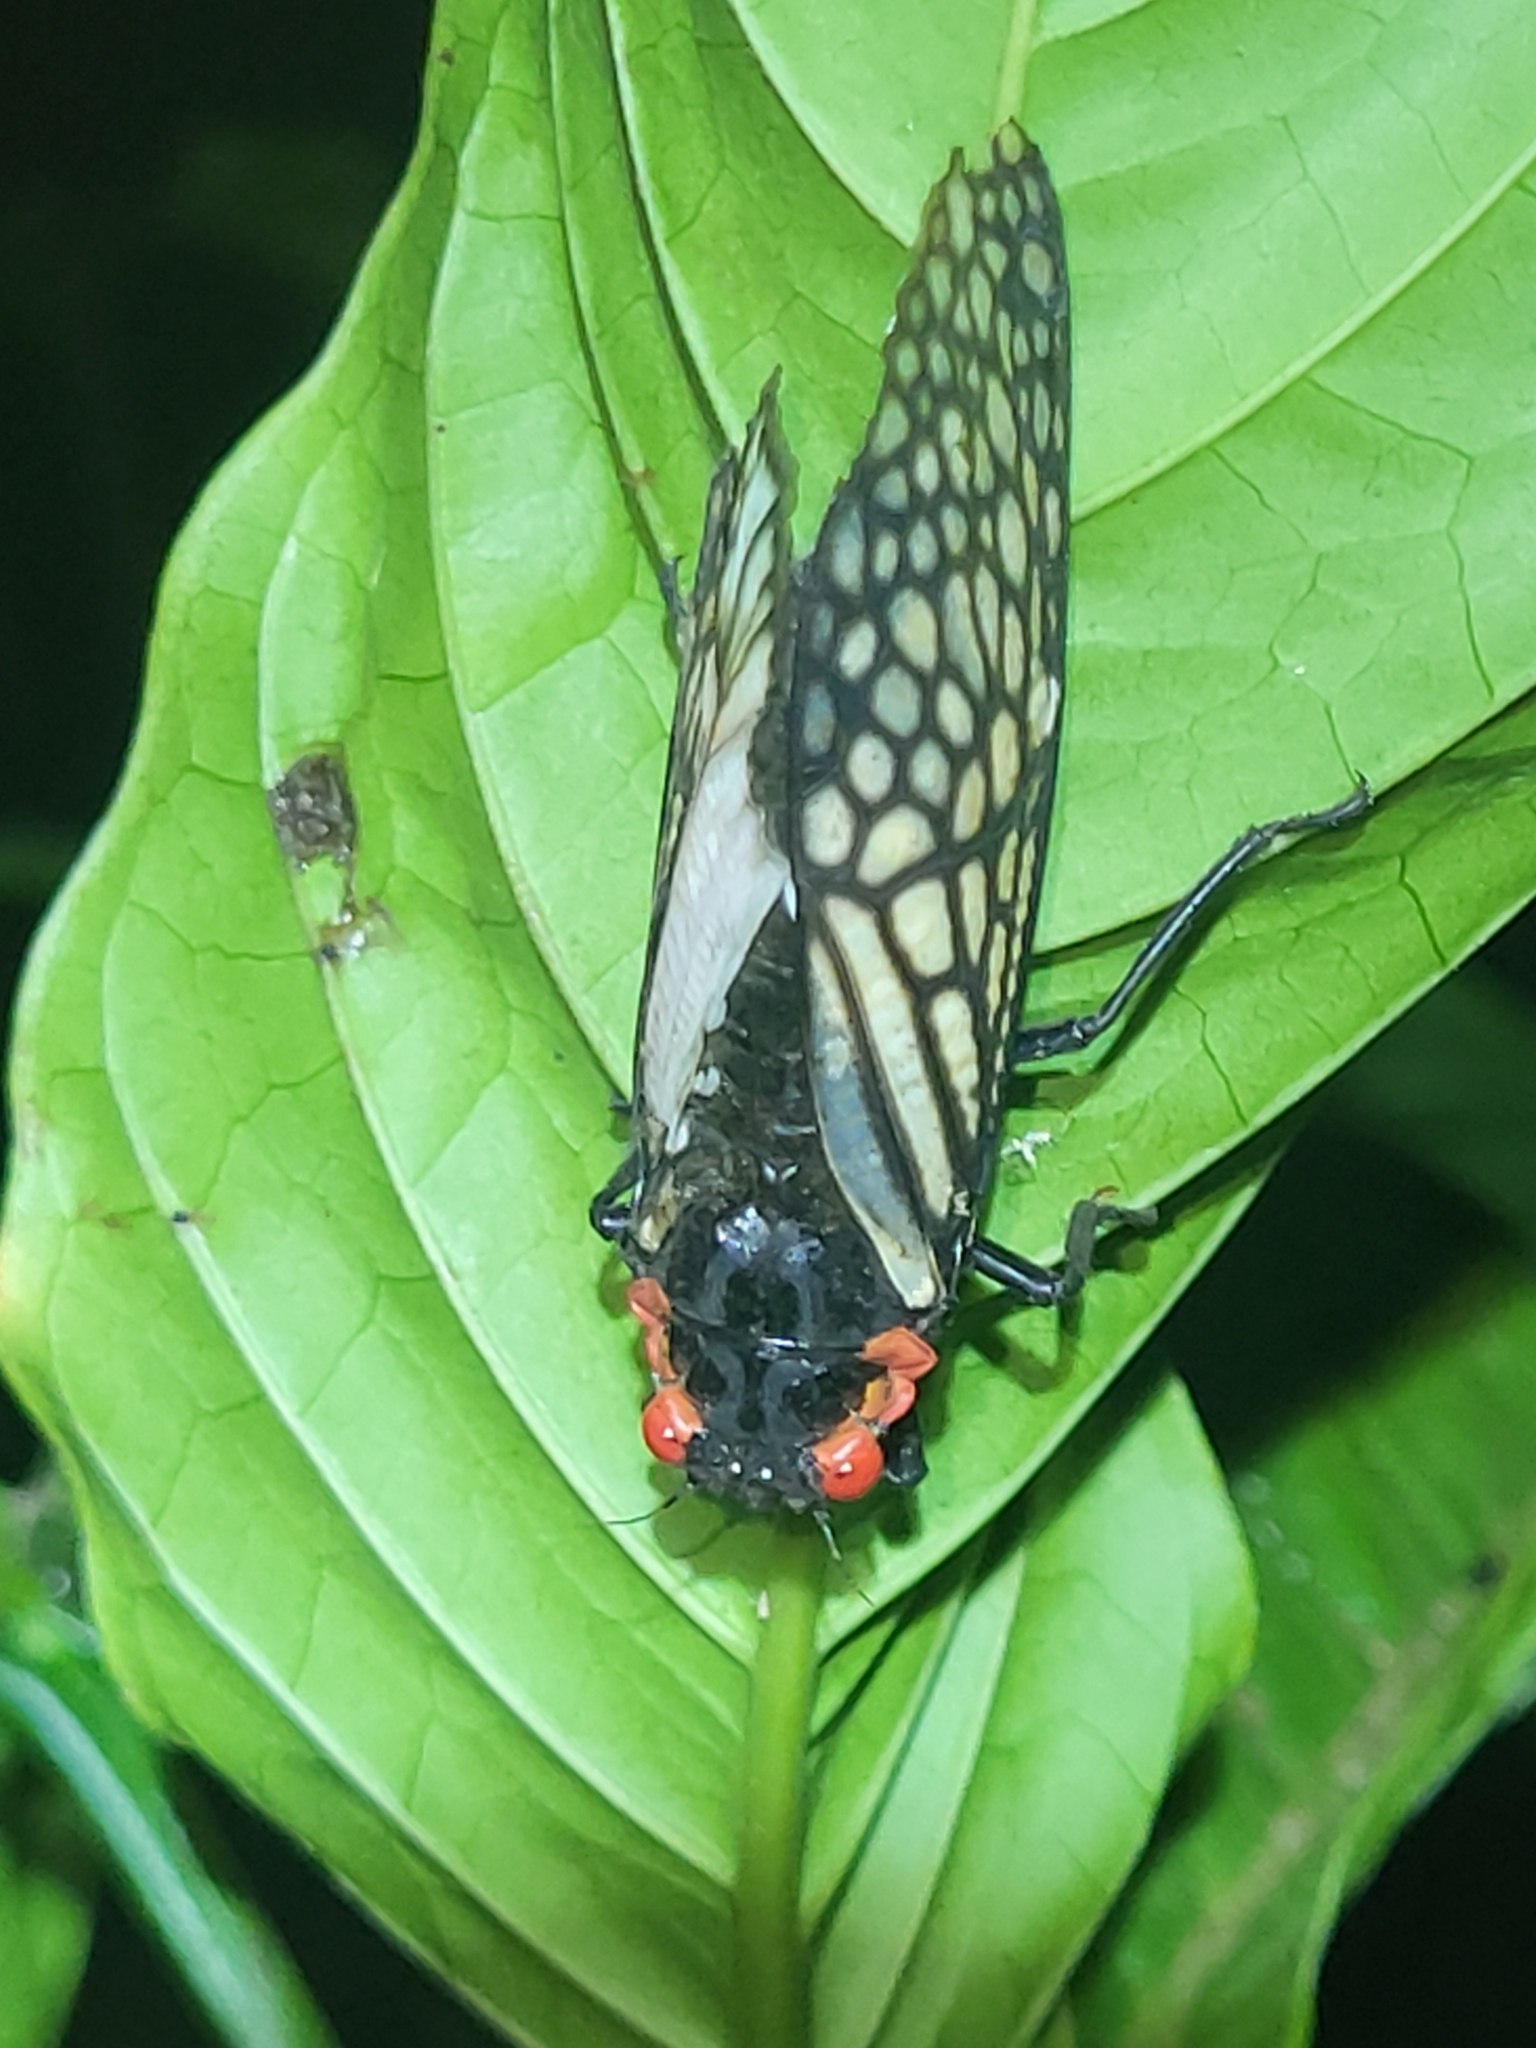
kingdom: Animalia
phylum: Arthropoda
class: Insecta
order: Hemiptera
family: Cicadidae
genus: Talainga
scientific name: Talainga binghami
